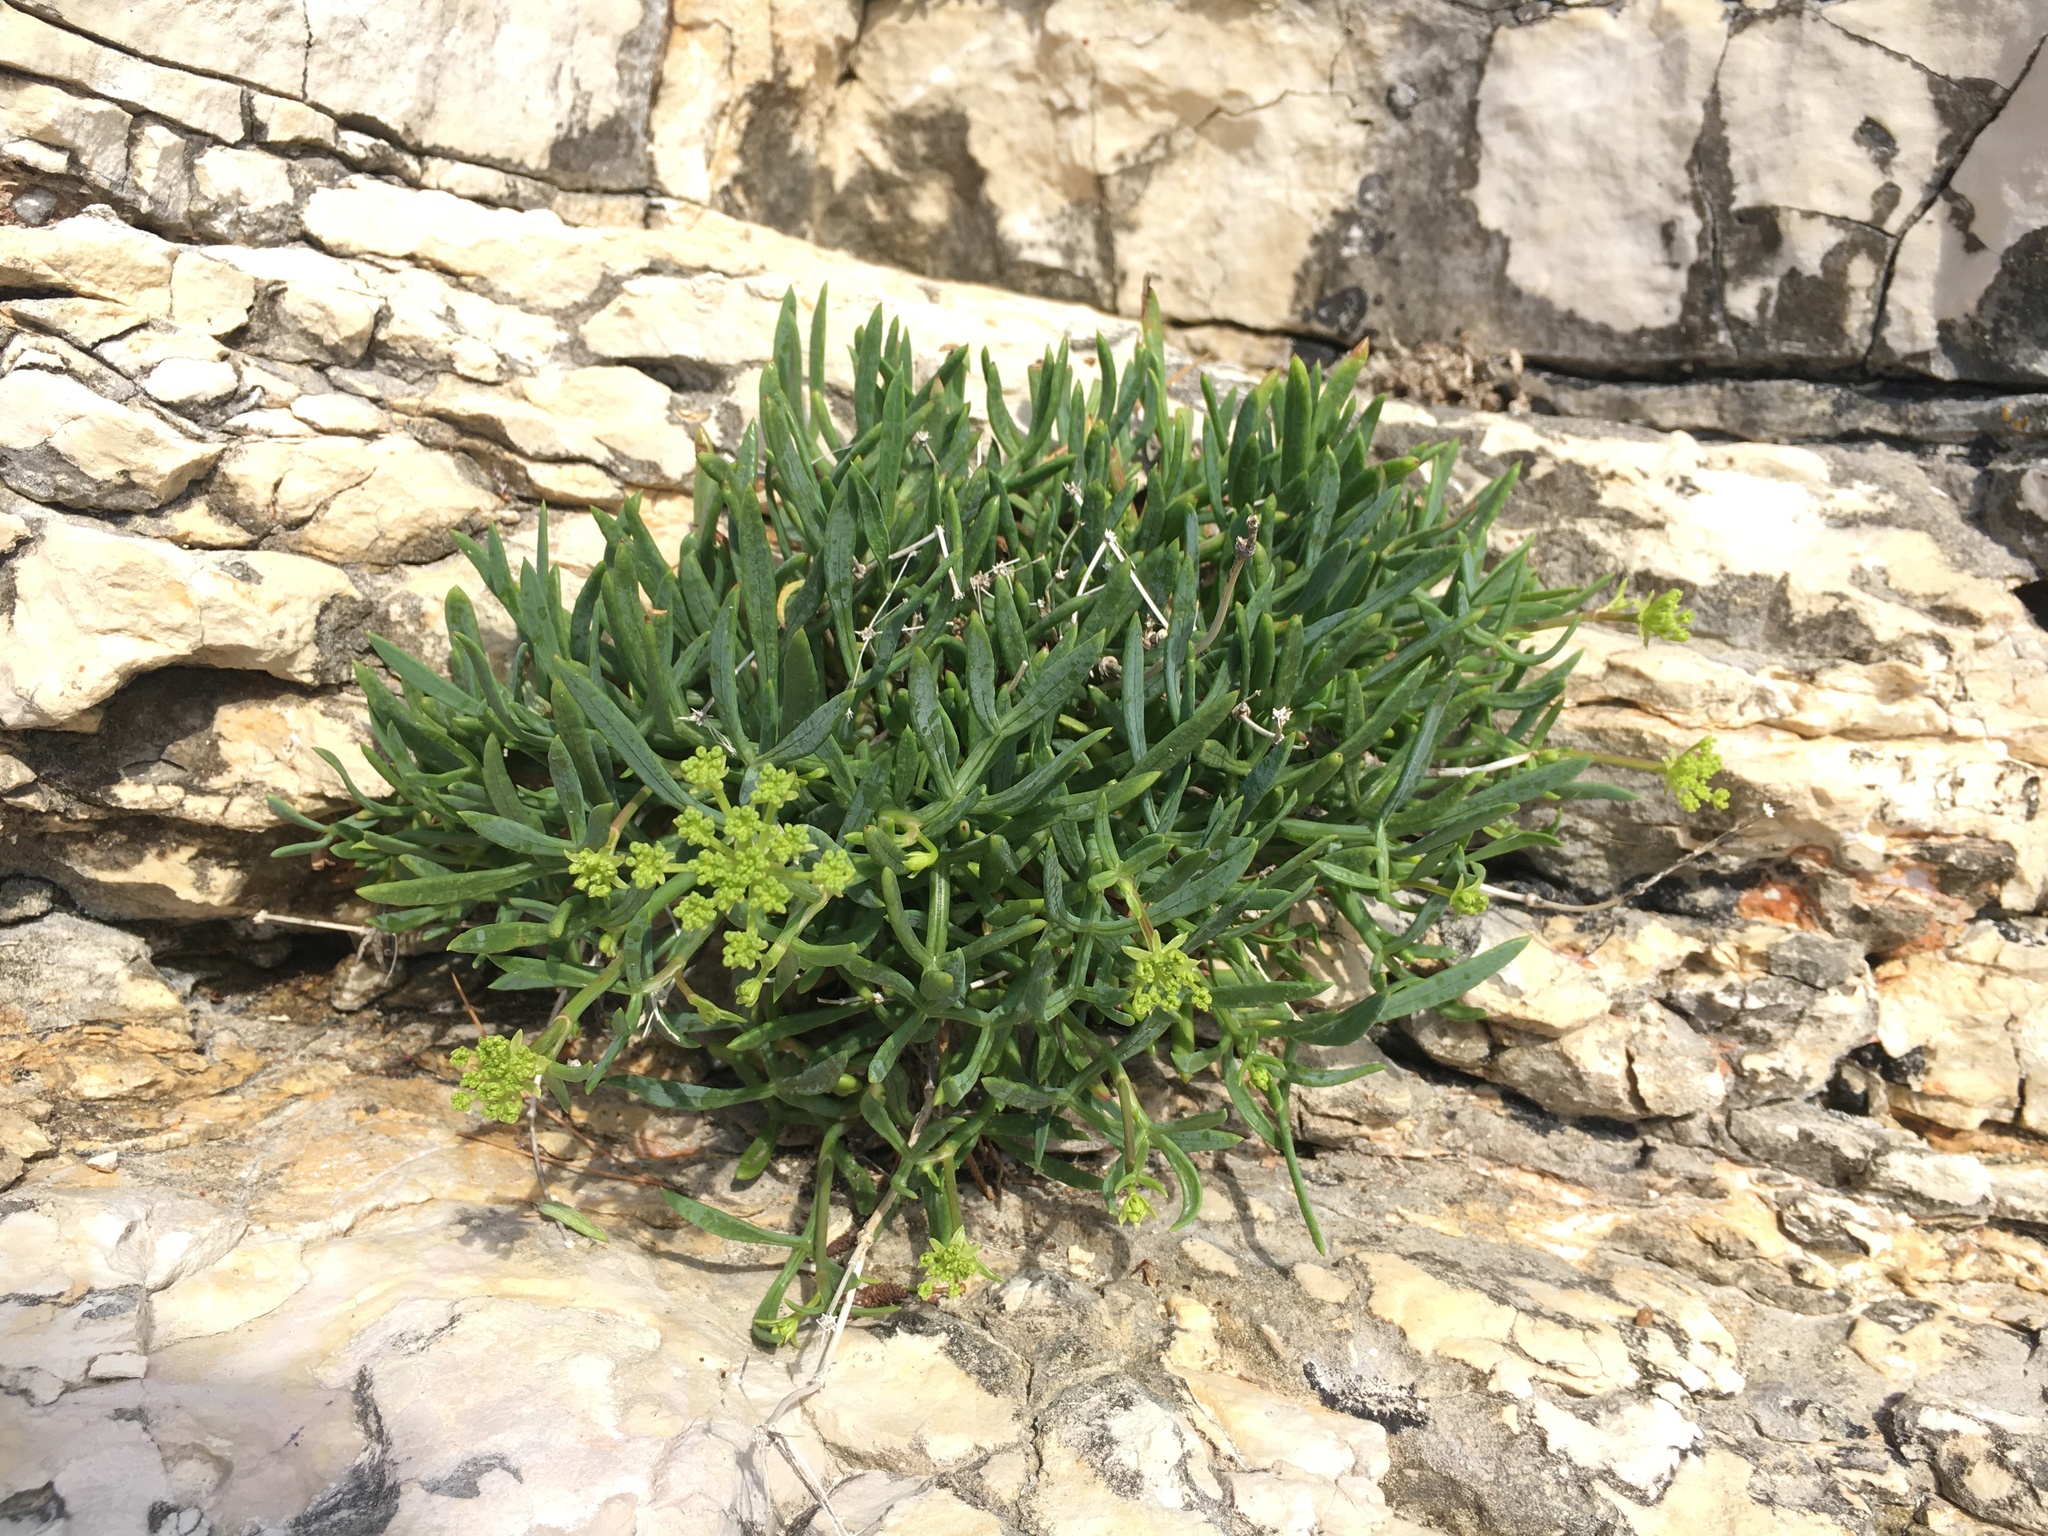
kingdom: Plantae
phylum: Tracheophyta
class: Magnoliopsida
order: Apiales
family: Apiaceae
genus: Crithmum
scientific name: Crithmum maritimum
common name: Rock samphire
